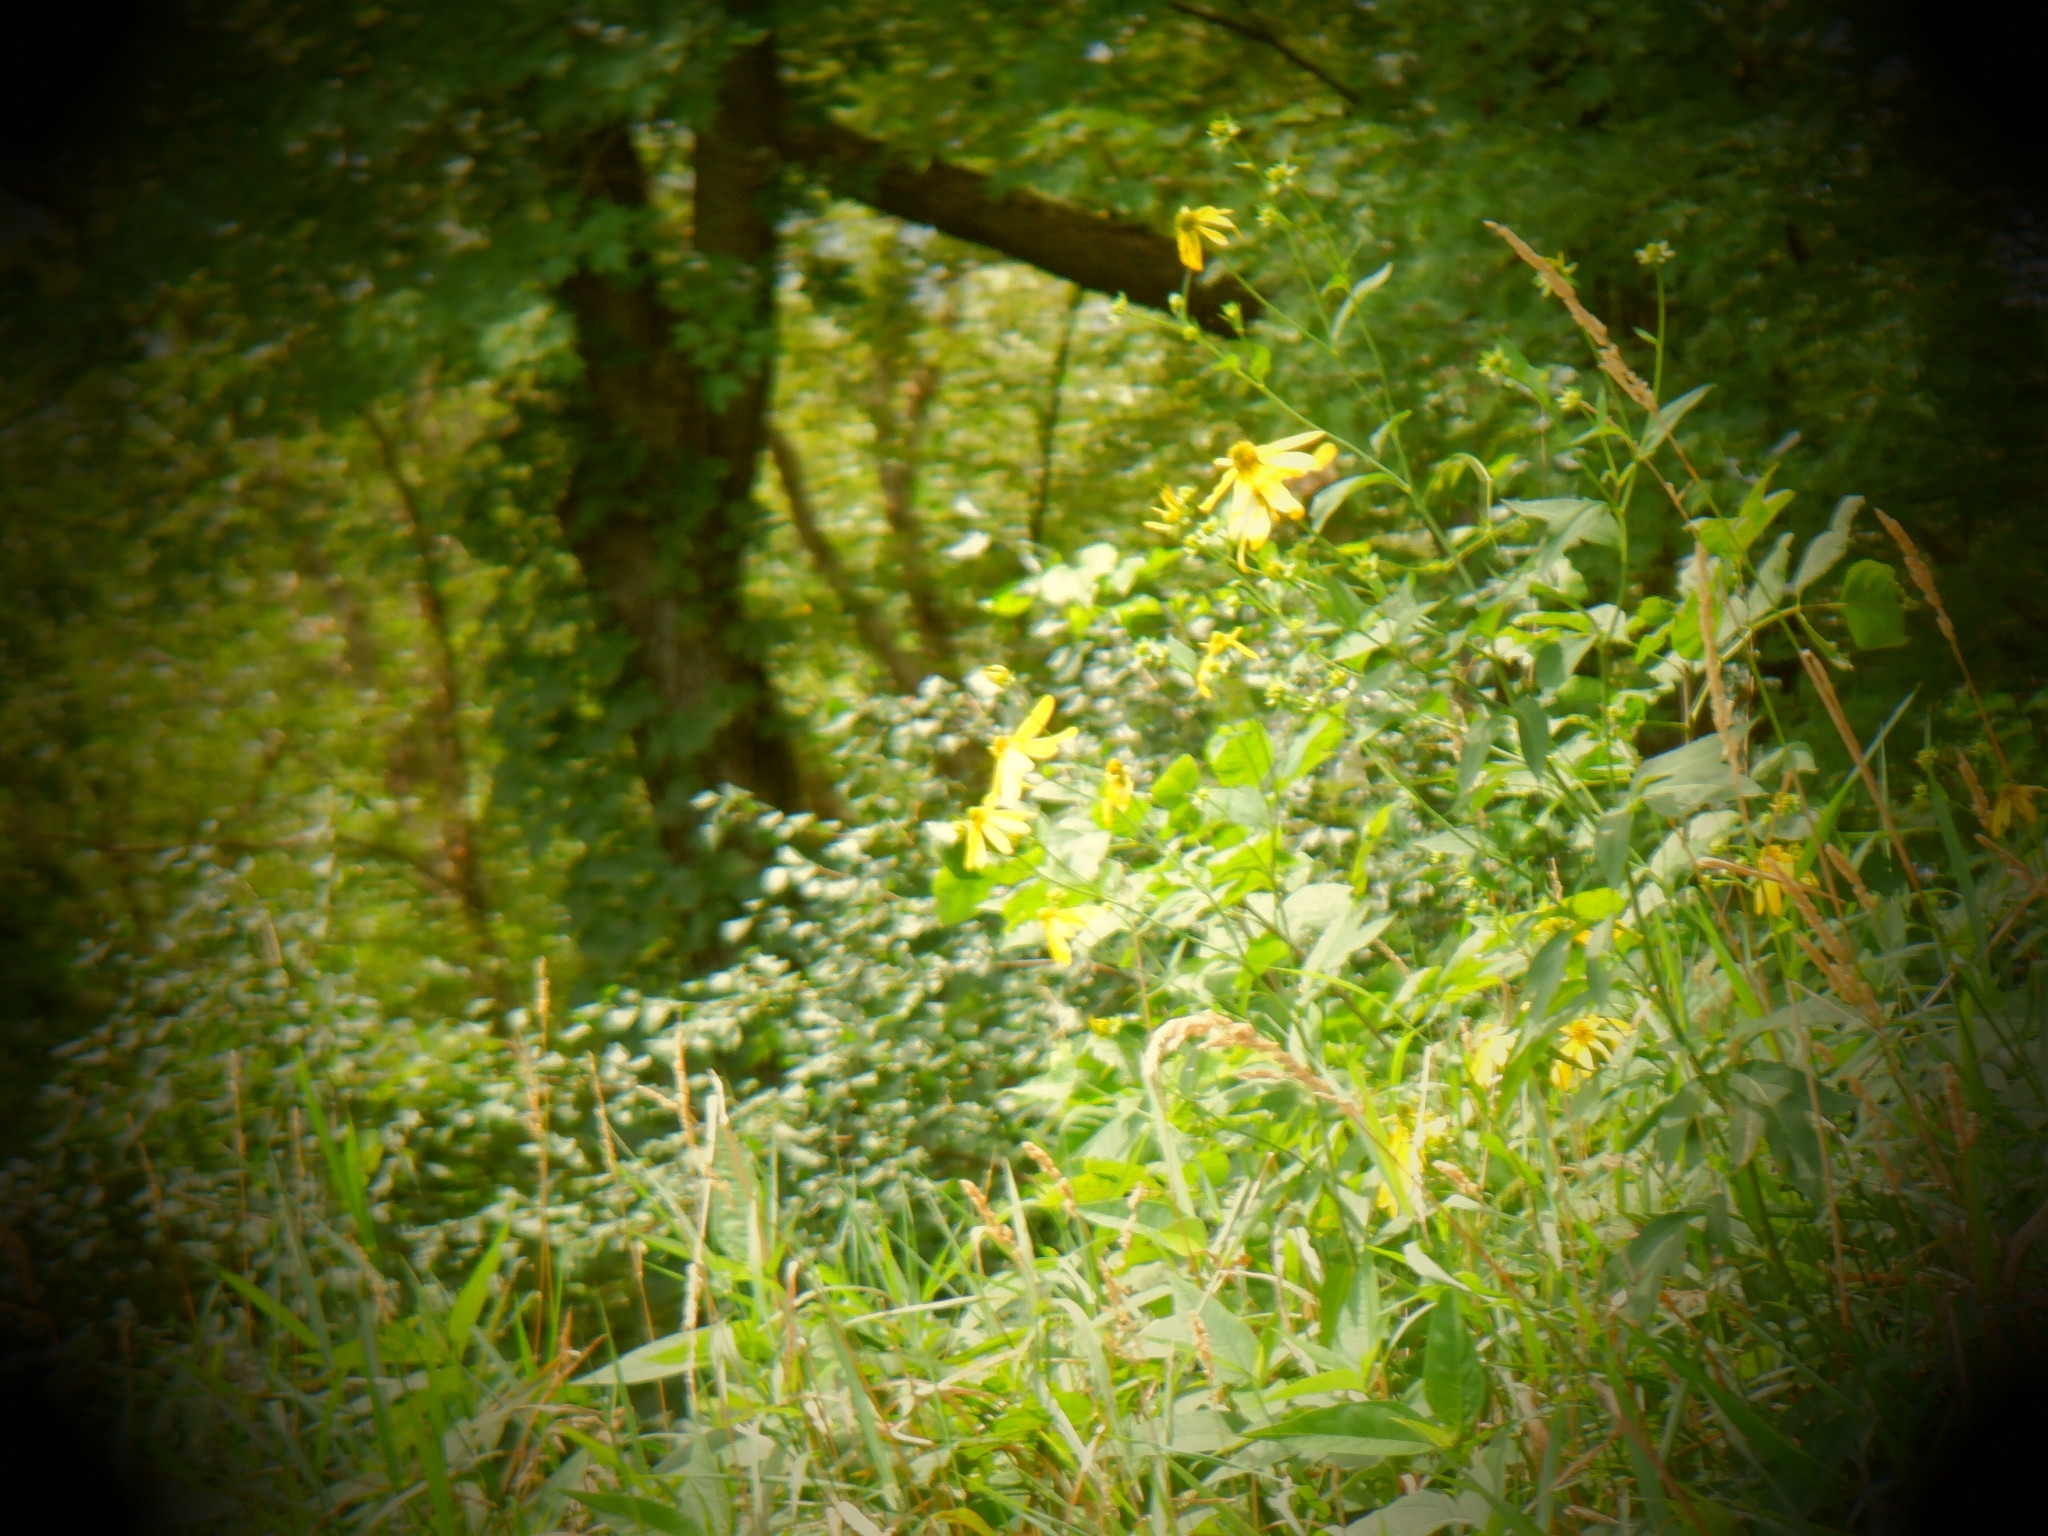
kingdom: Plantae
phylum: Tracheophyta
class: Magnoliopsida
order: Asterales
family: Asteraceae
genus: Rudbeckia
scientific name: Rudbeckia laciniata
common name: Coneflower
